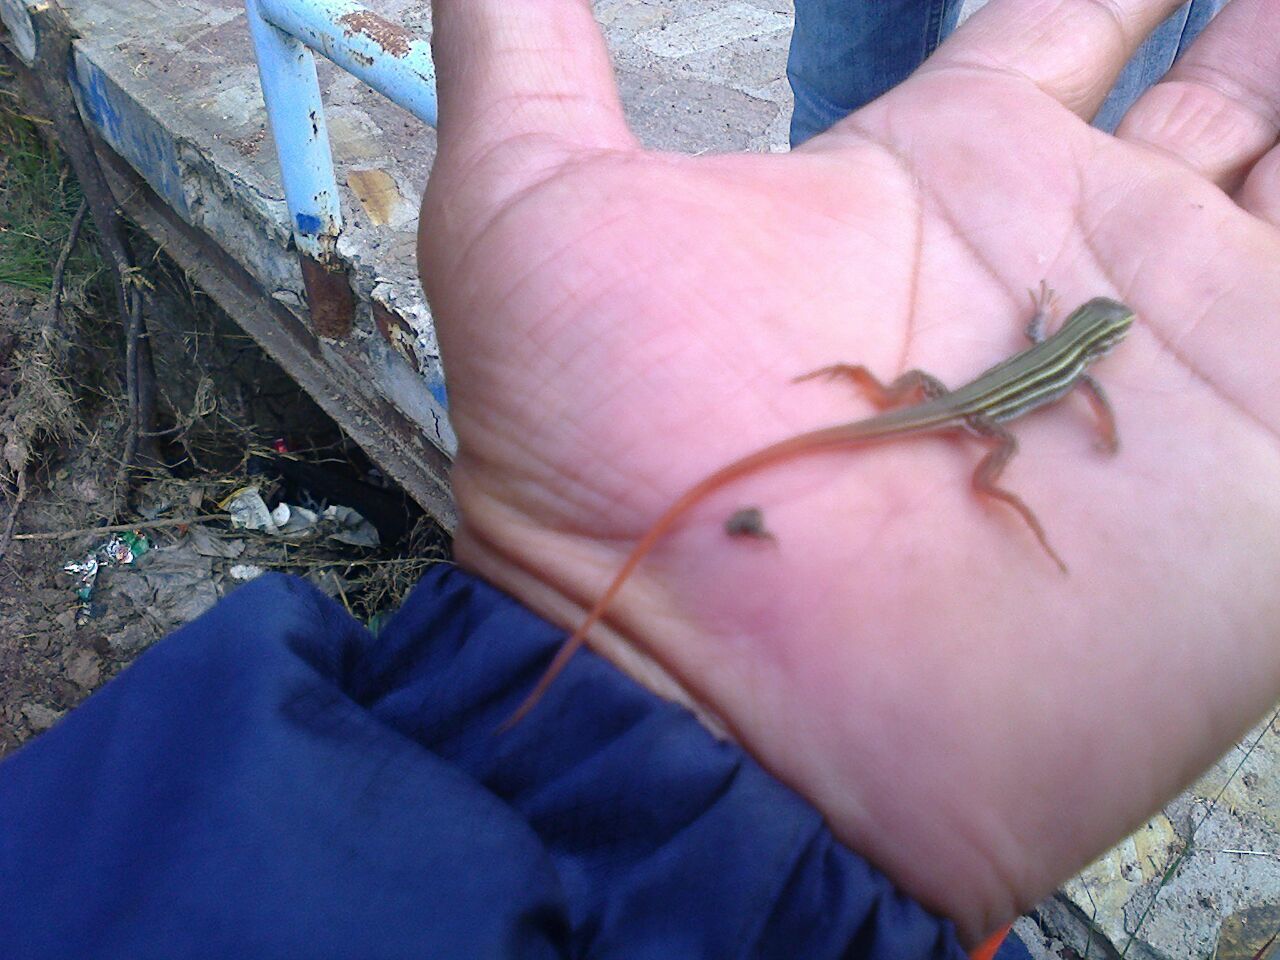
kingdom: Animalia
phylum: Chordata
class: Squamata
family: Teiidae
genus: Aspidoscelis
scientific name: Aspidoscelis gularis
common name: Eastern spotted whiptail
